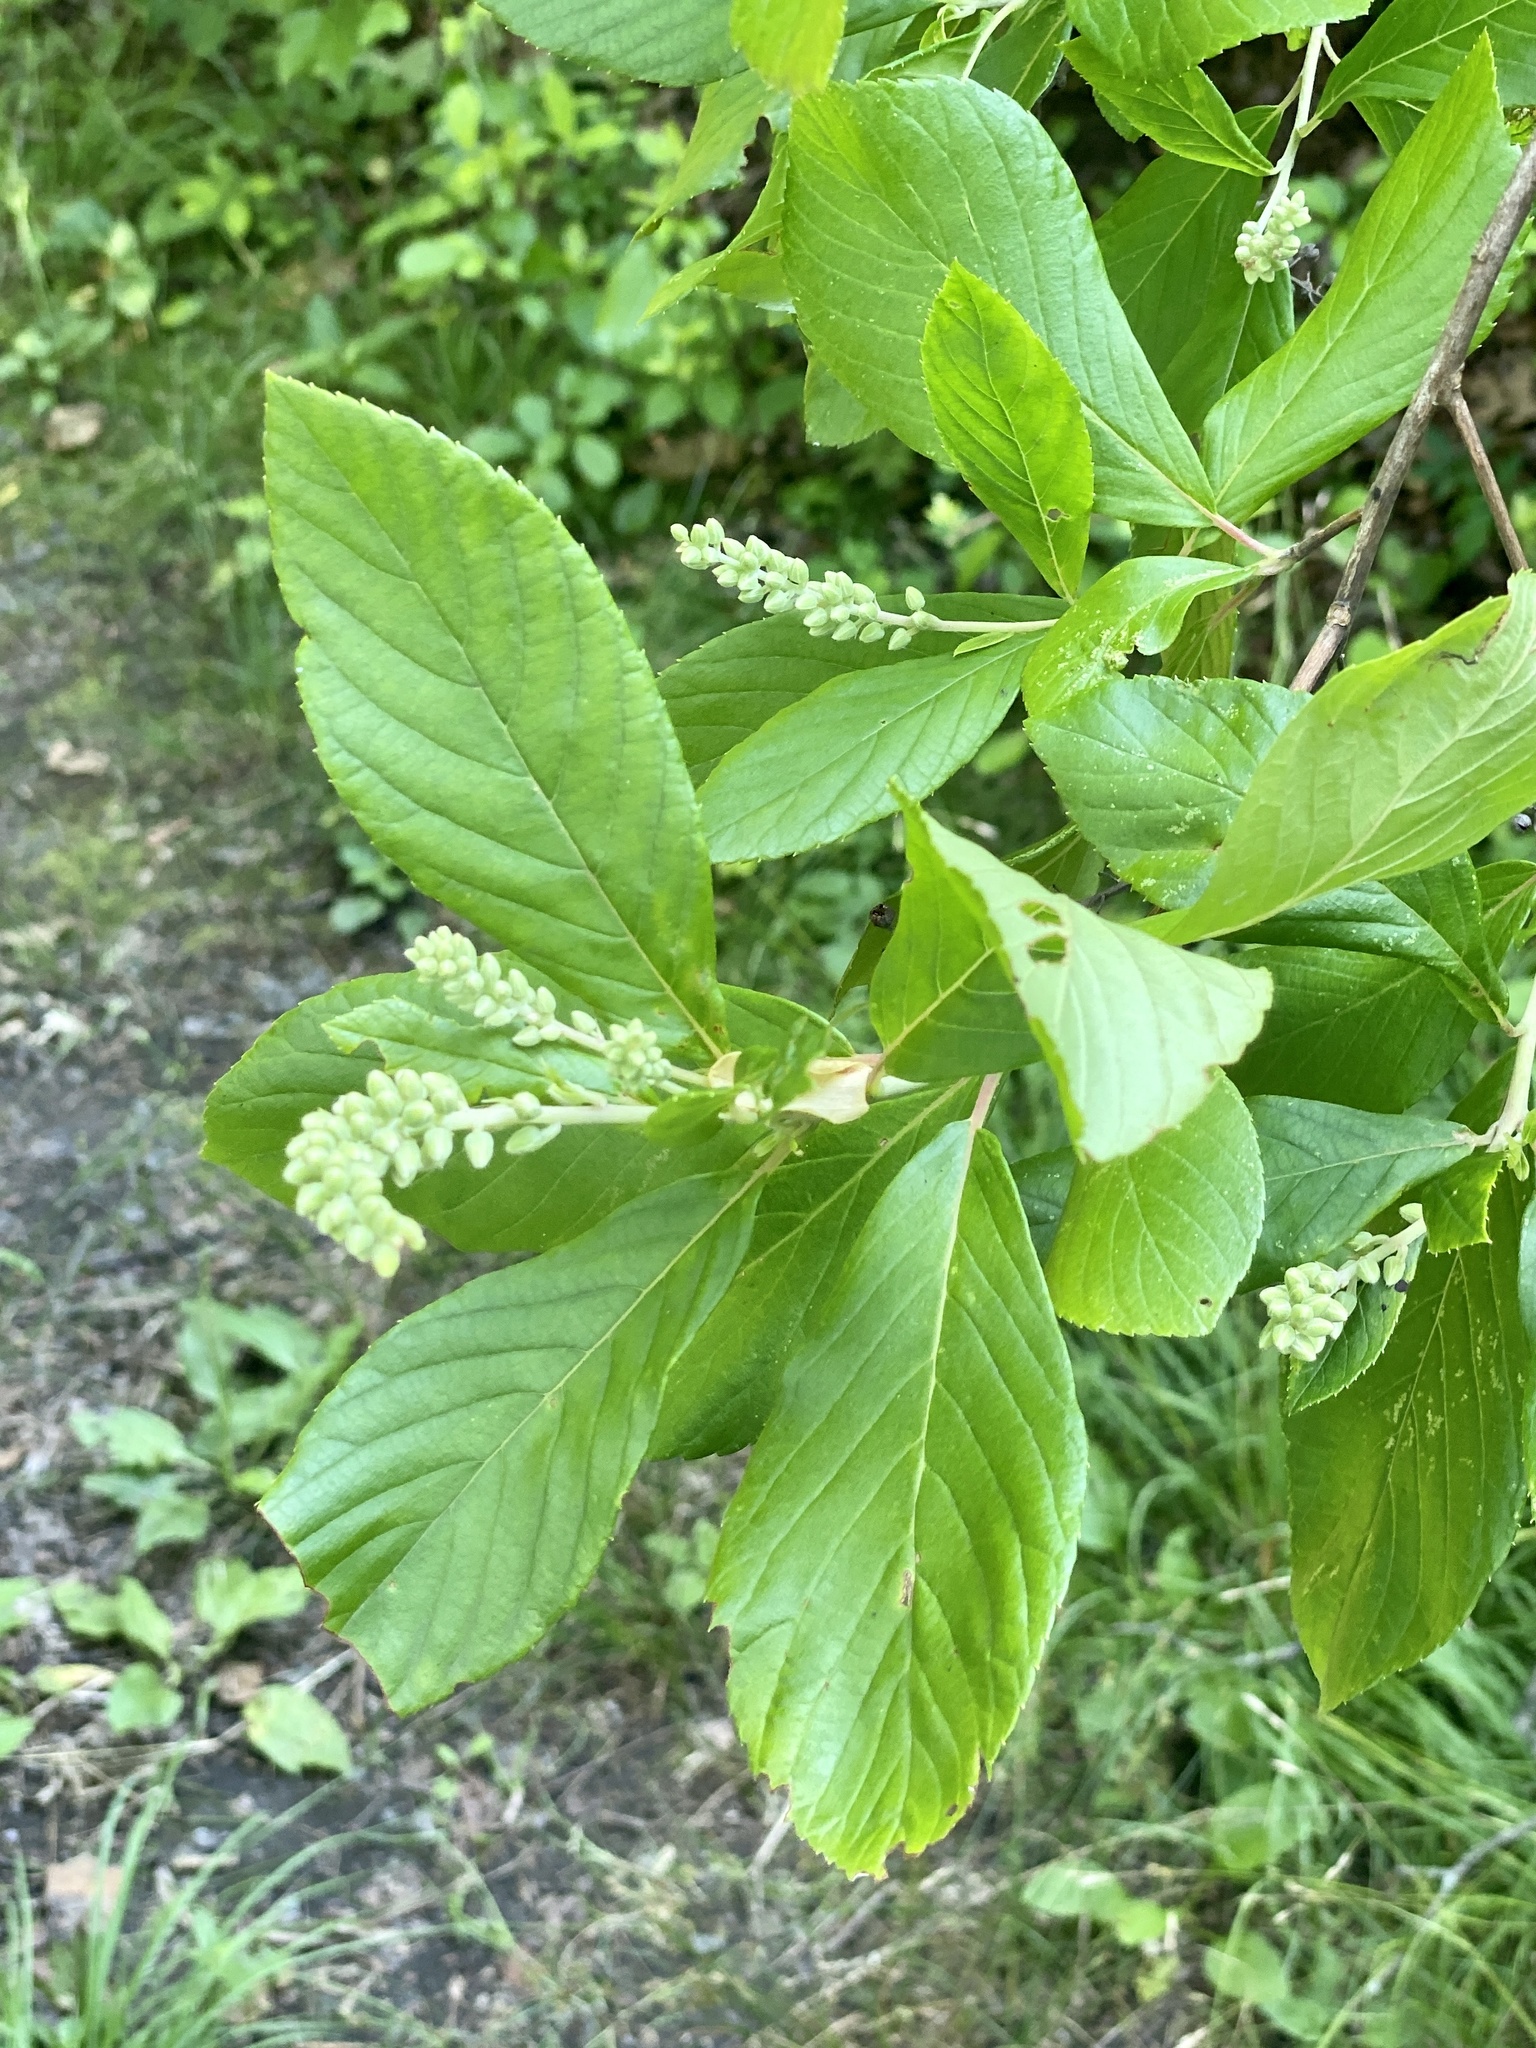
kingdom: Plantae
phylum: Tracheophyta
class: Magnoliopsida
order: Ericales
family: Clethraceae
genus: Clethra
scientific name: Clethra alnifolia
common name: Sweet pepperbush
